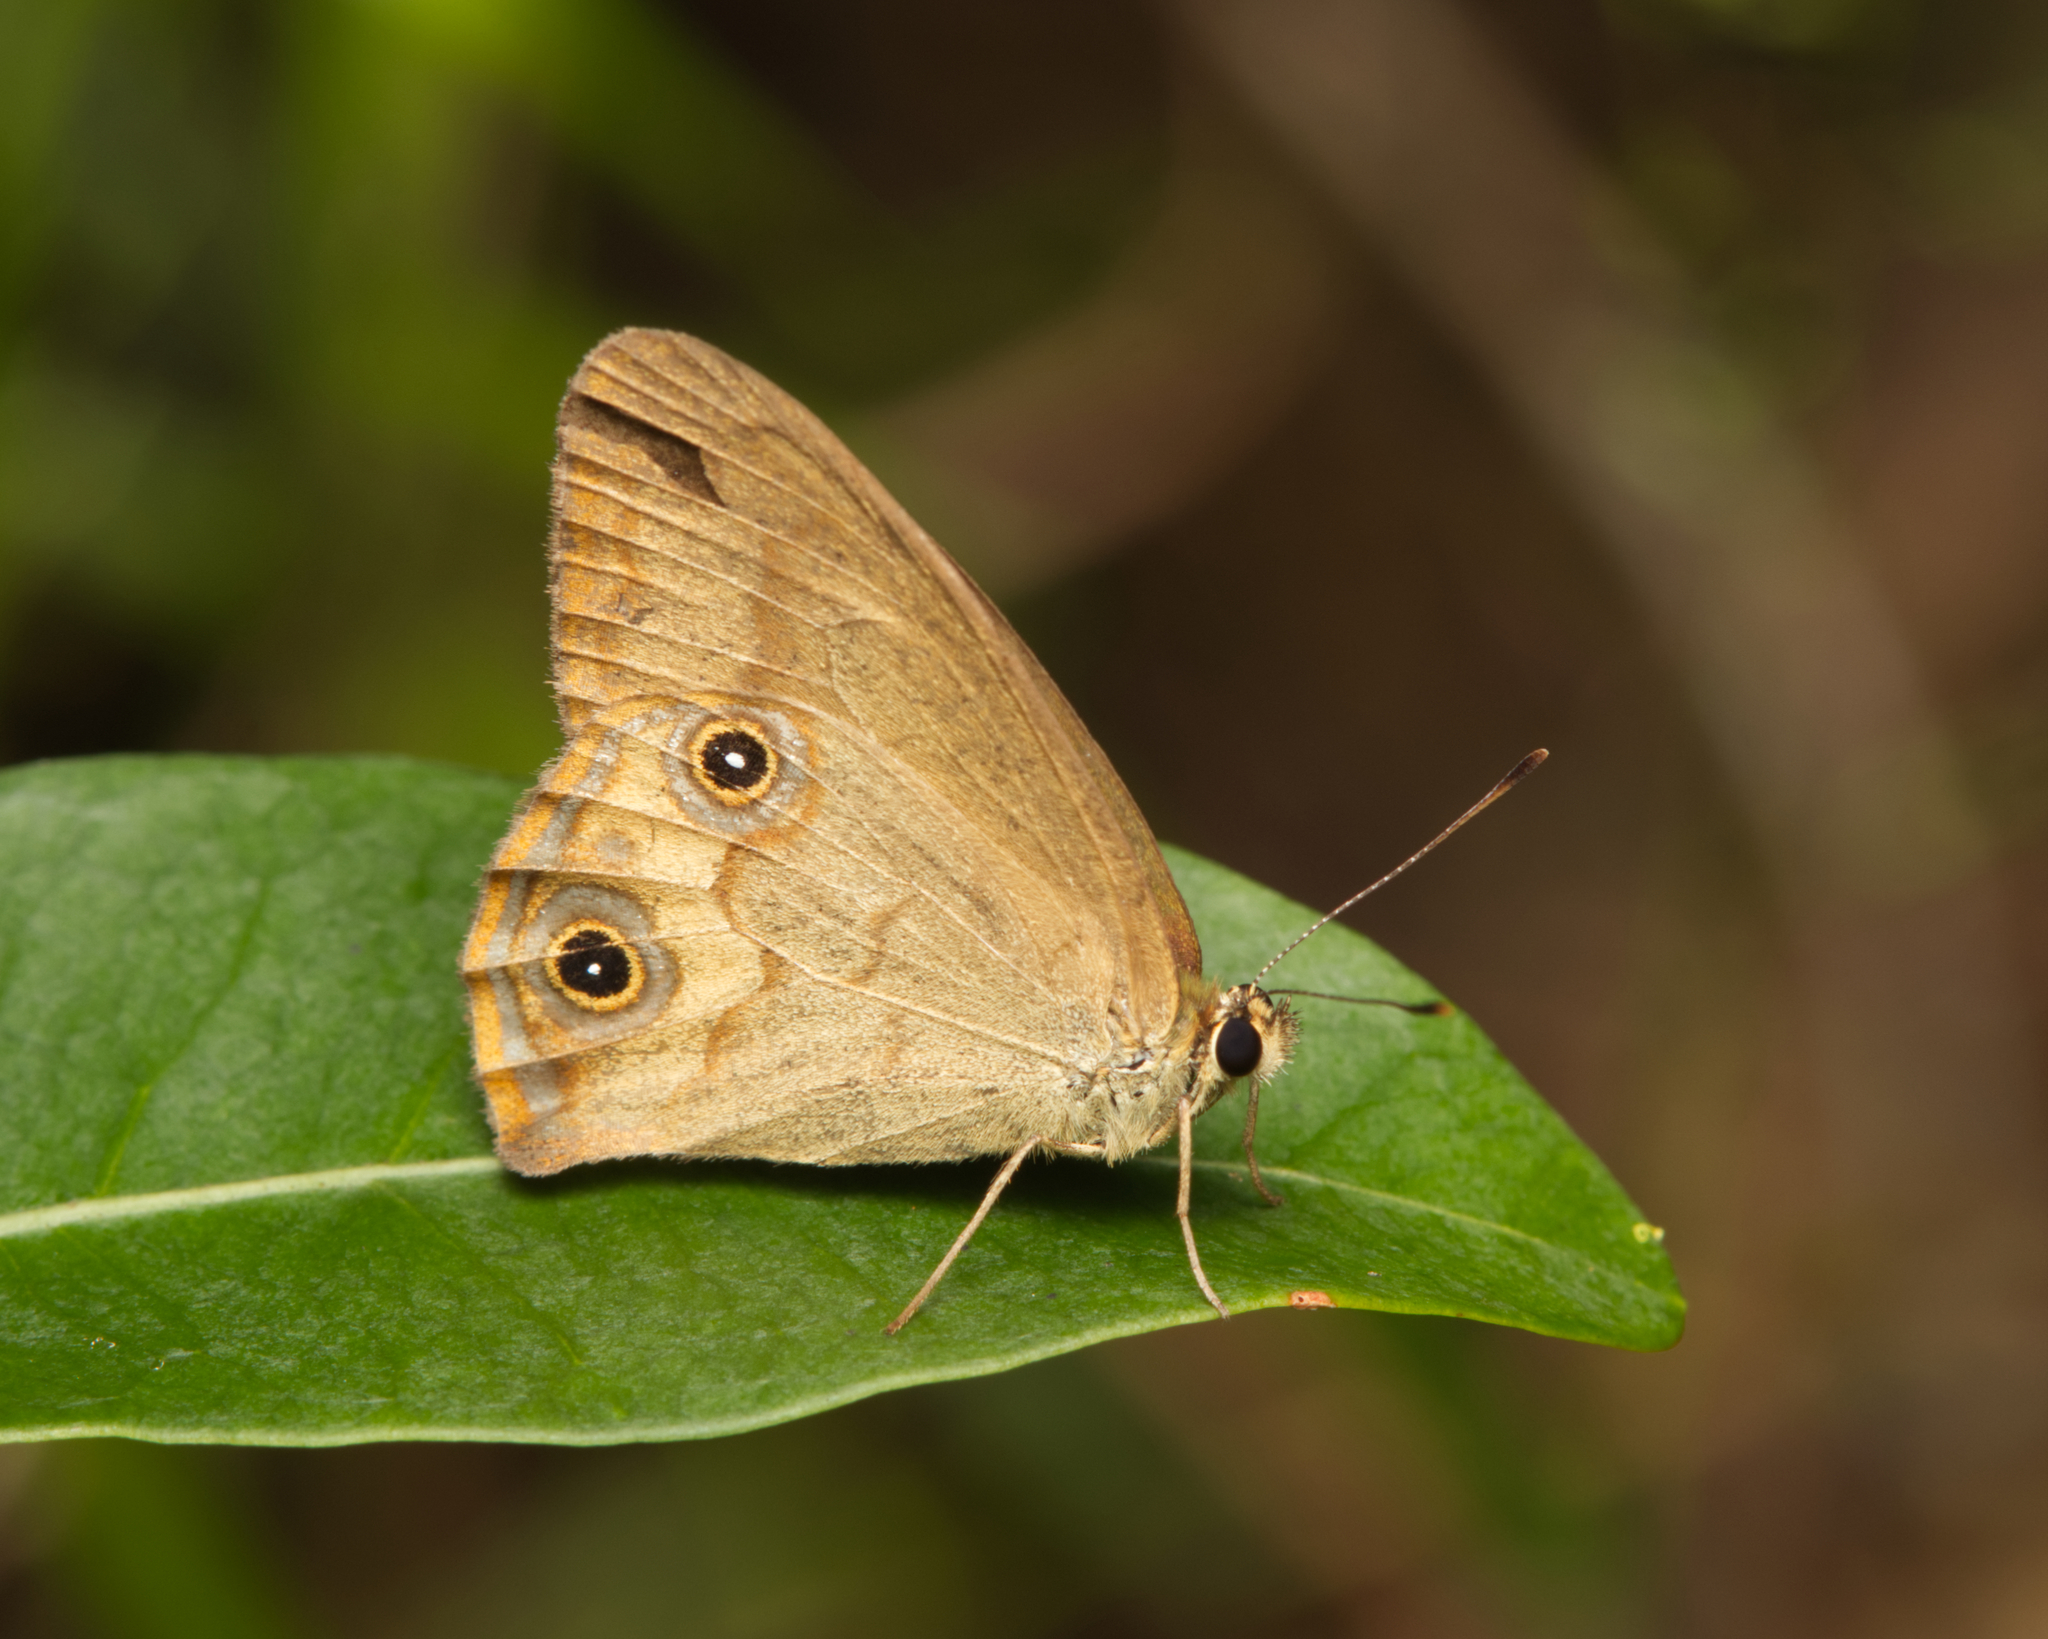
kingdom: Animalia
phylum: Arthropoda
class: Insecta
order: Lepidoptera
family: Nymphalidae
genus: Hypocysta
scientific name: Hypocysta metirius
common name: Brown ringlet
